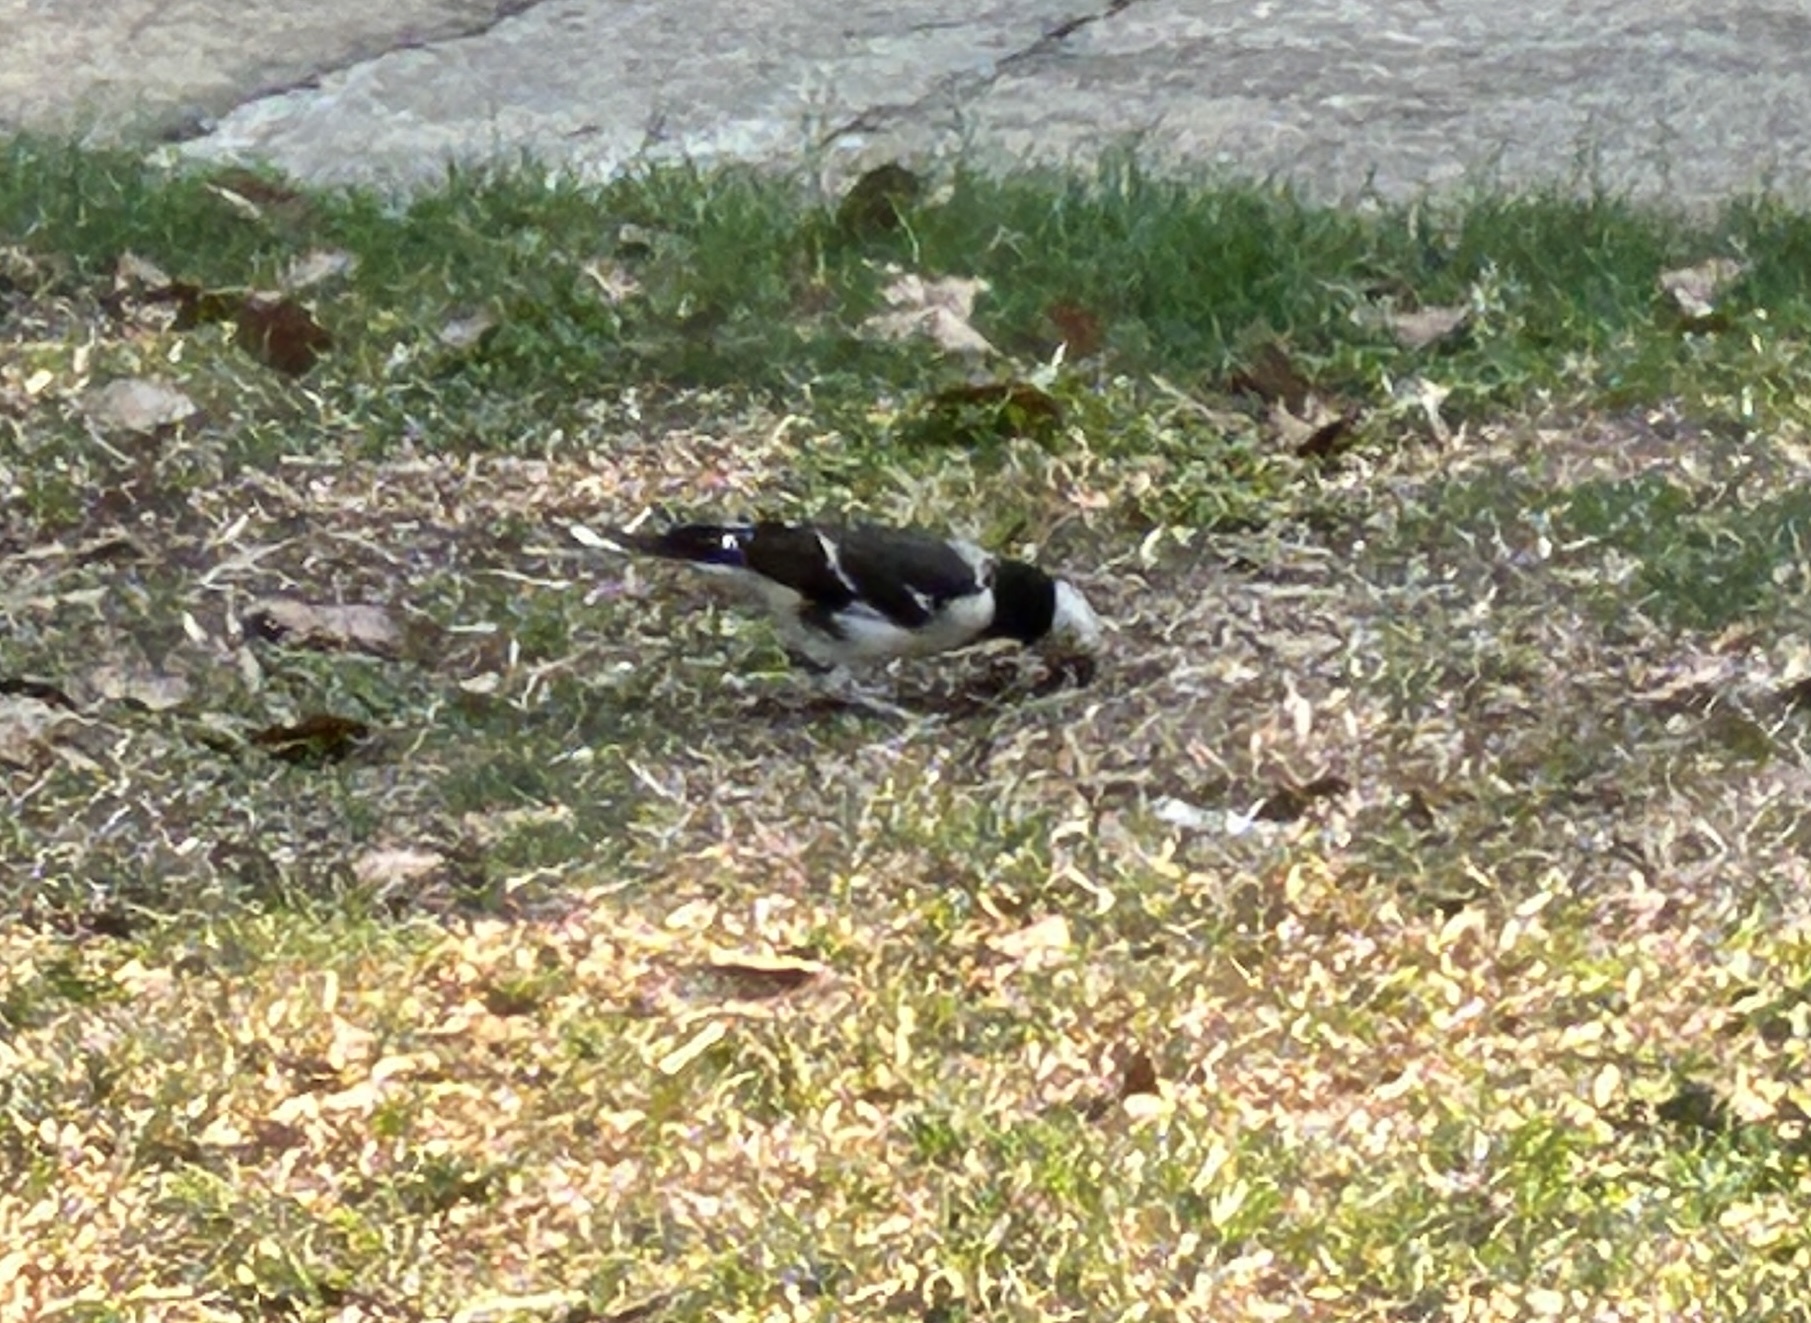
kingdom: Animalia
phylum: Chordata
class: Aves
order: Passeriformes
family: Sturnidae
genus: Gracupica
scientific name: Gracupica nigricollis
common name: Black-collared starling
